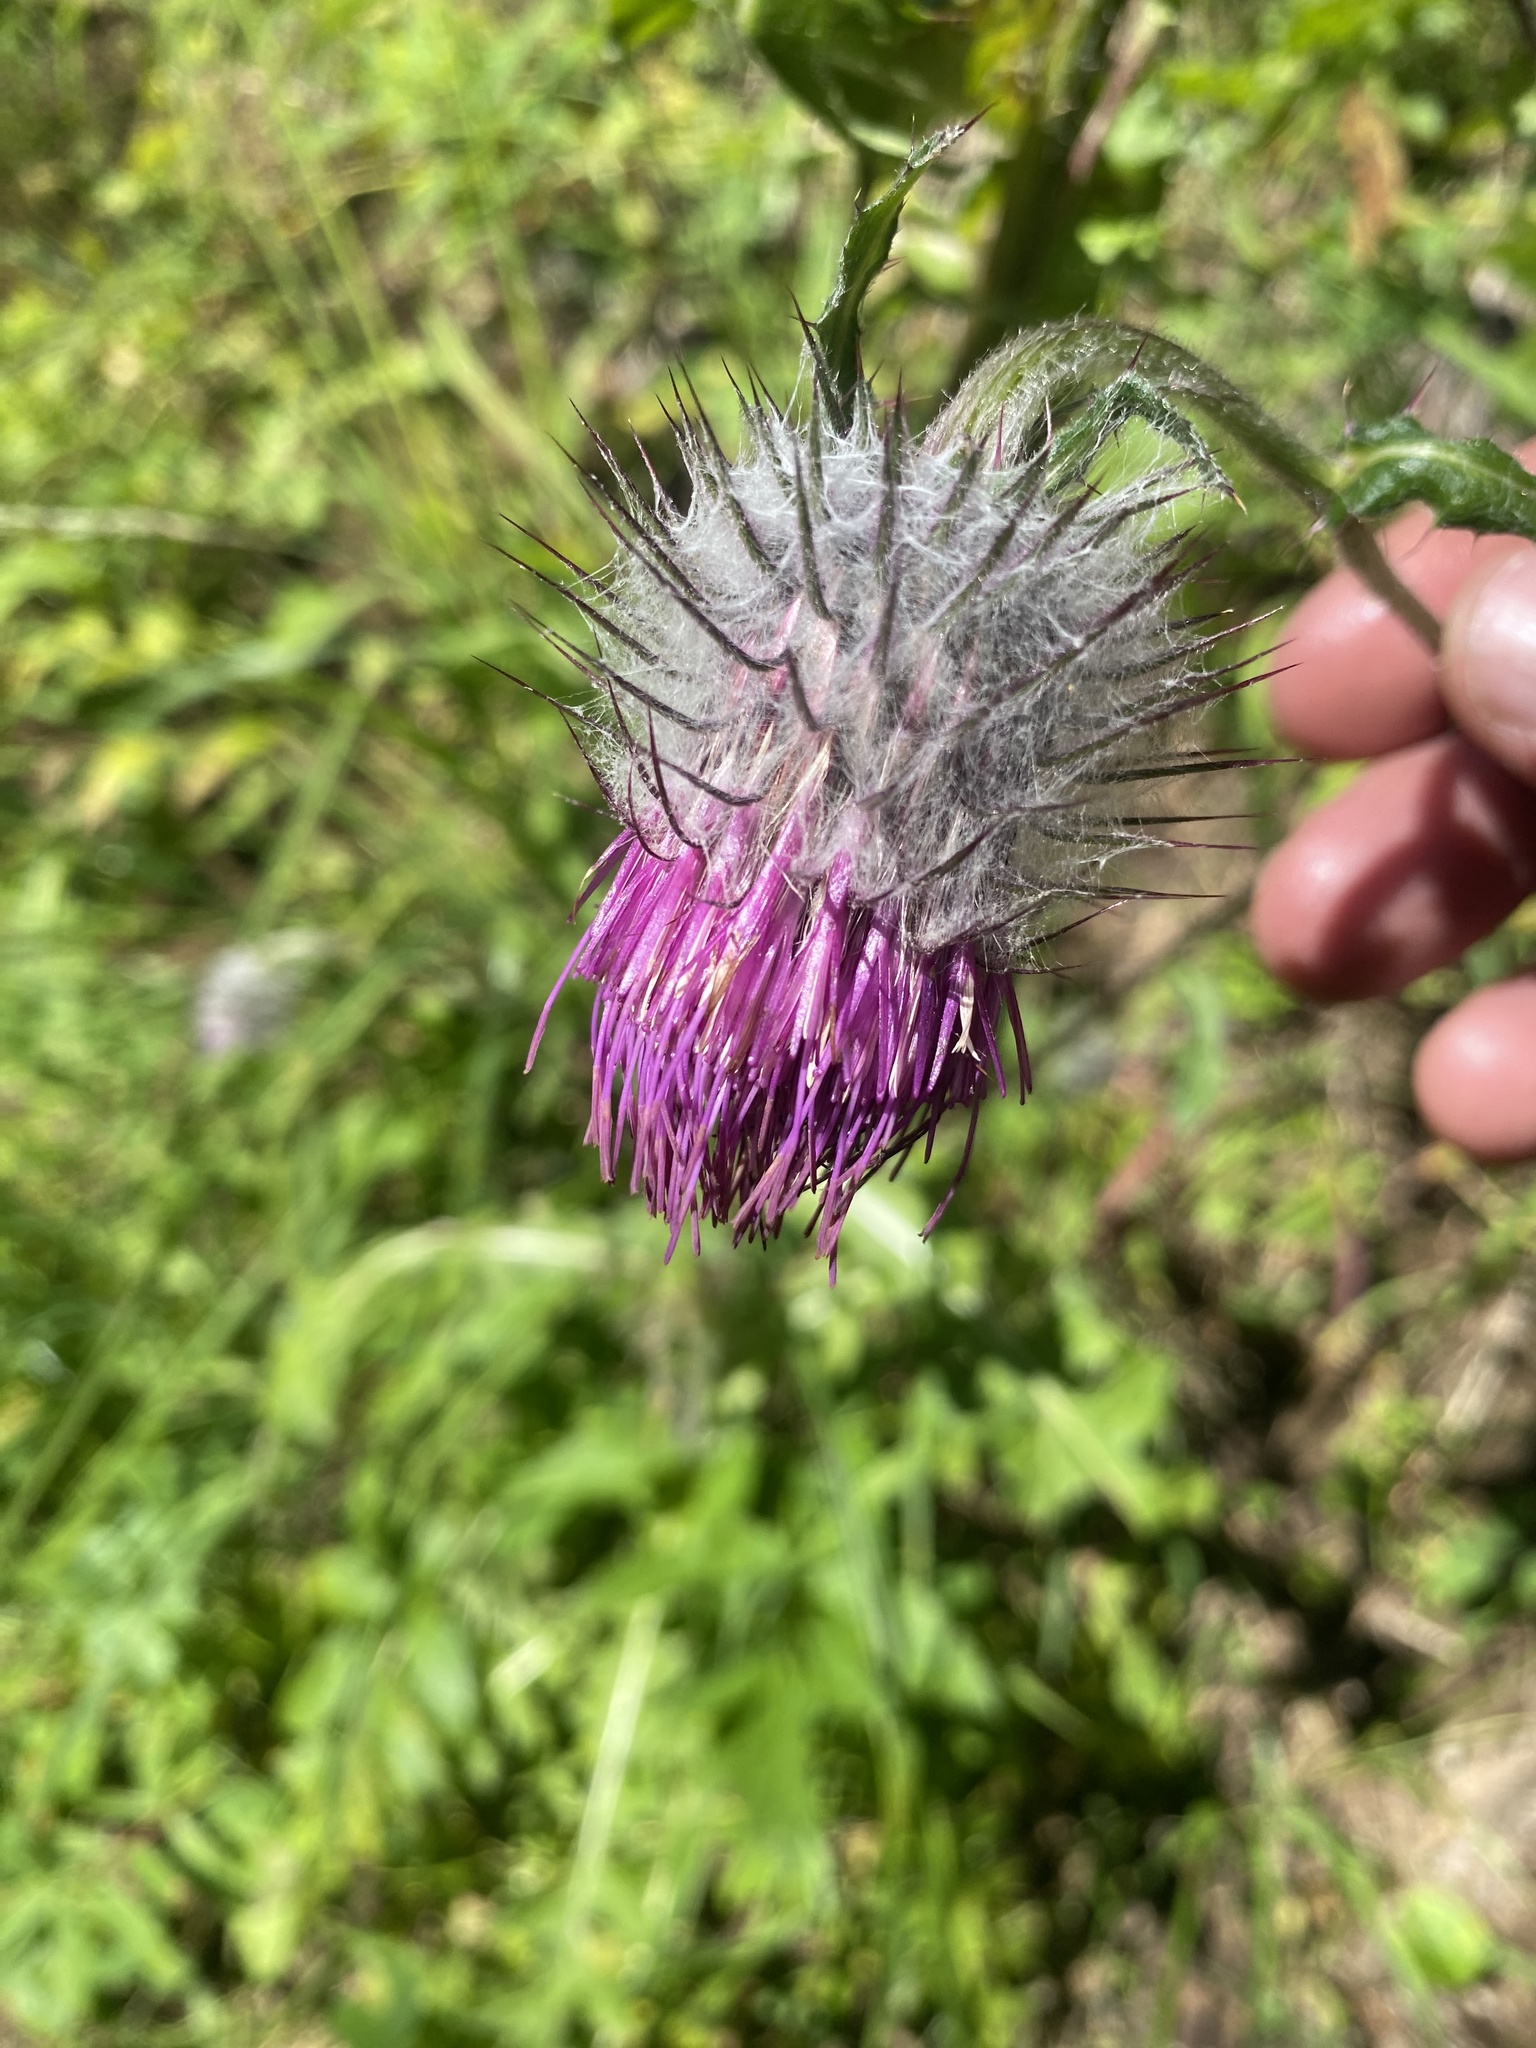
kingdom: Plantae
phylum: Tracheophyta
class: Magnoliopsida
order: Asterales
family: Asteraceae
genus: Cirsium
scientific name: Cirsium edule
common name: Indian thistle
